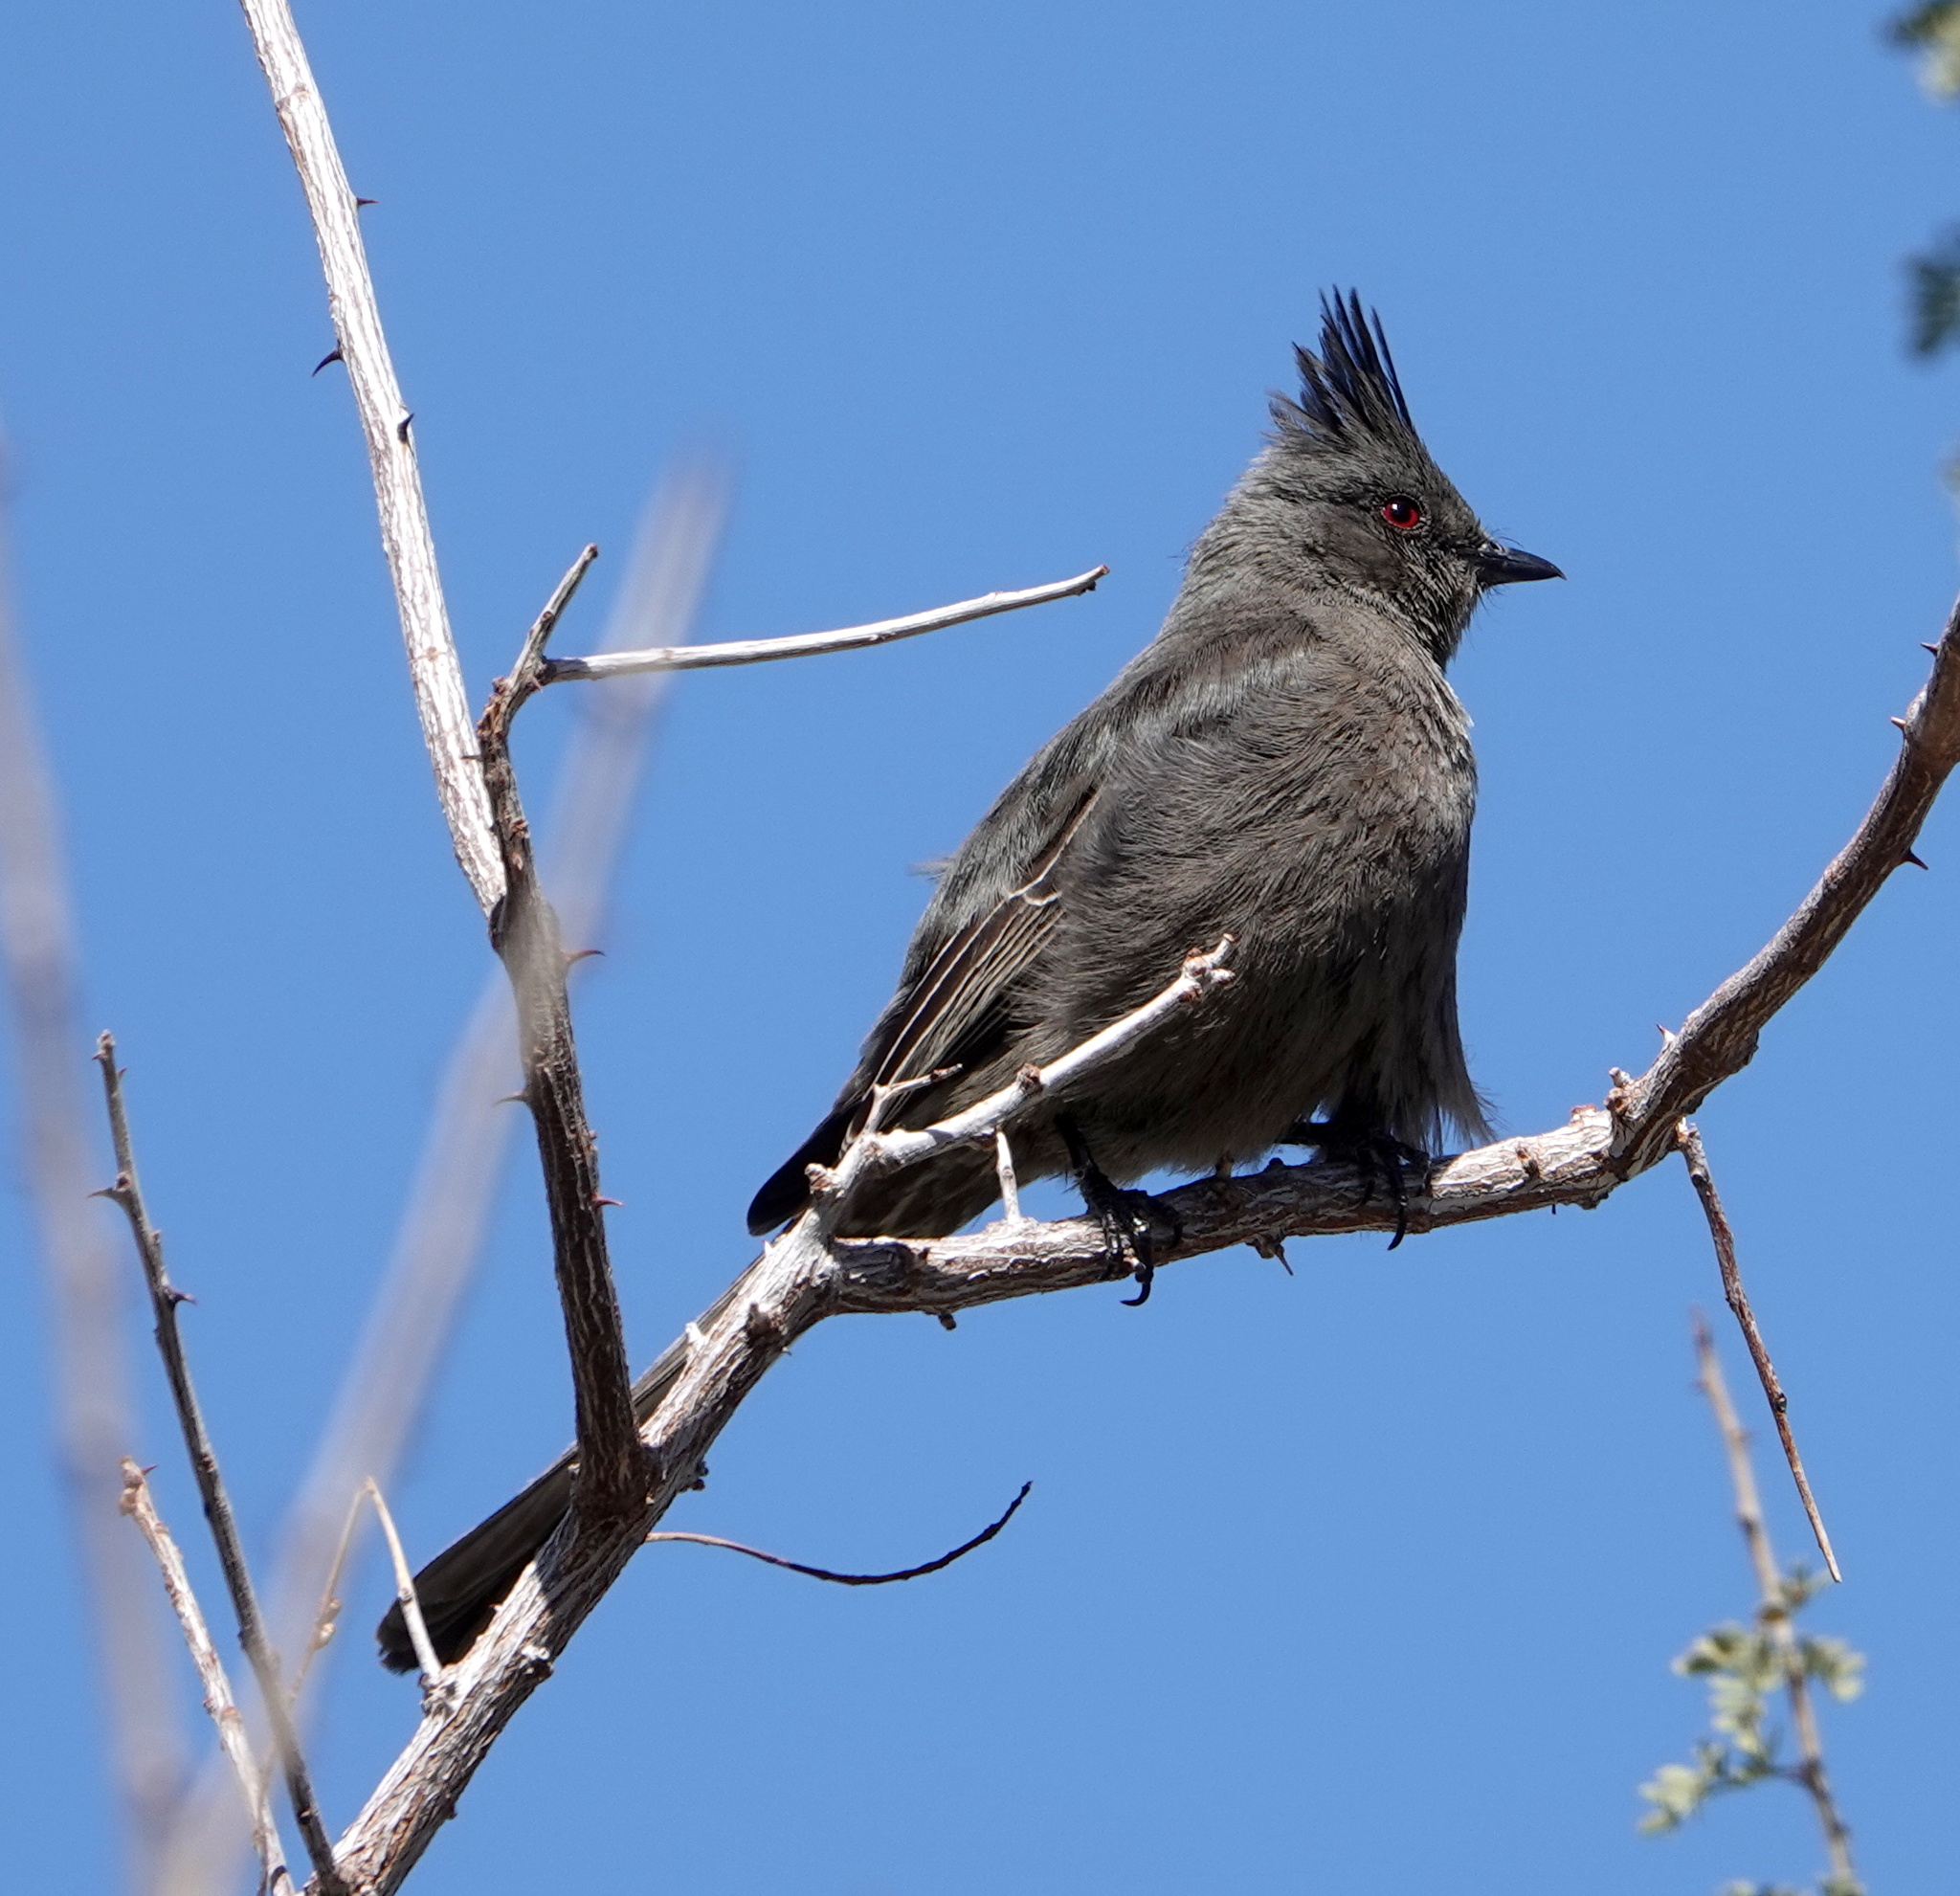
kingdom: Animalia
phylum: Chordata
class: Aves
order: Passeriformes
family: Ptilogonatidae
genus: Phainopepla
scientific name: Phainopepla nitens
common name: Phainopepla
